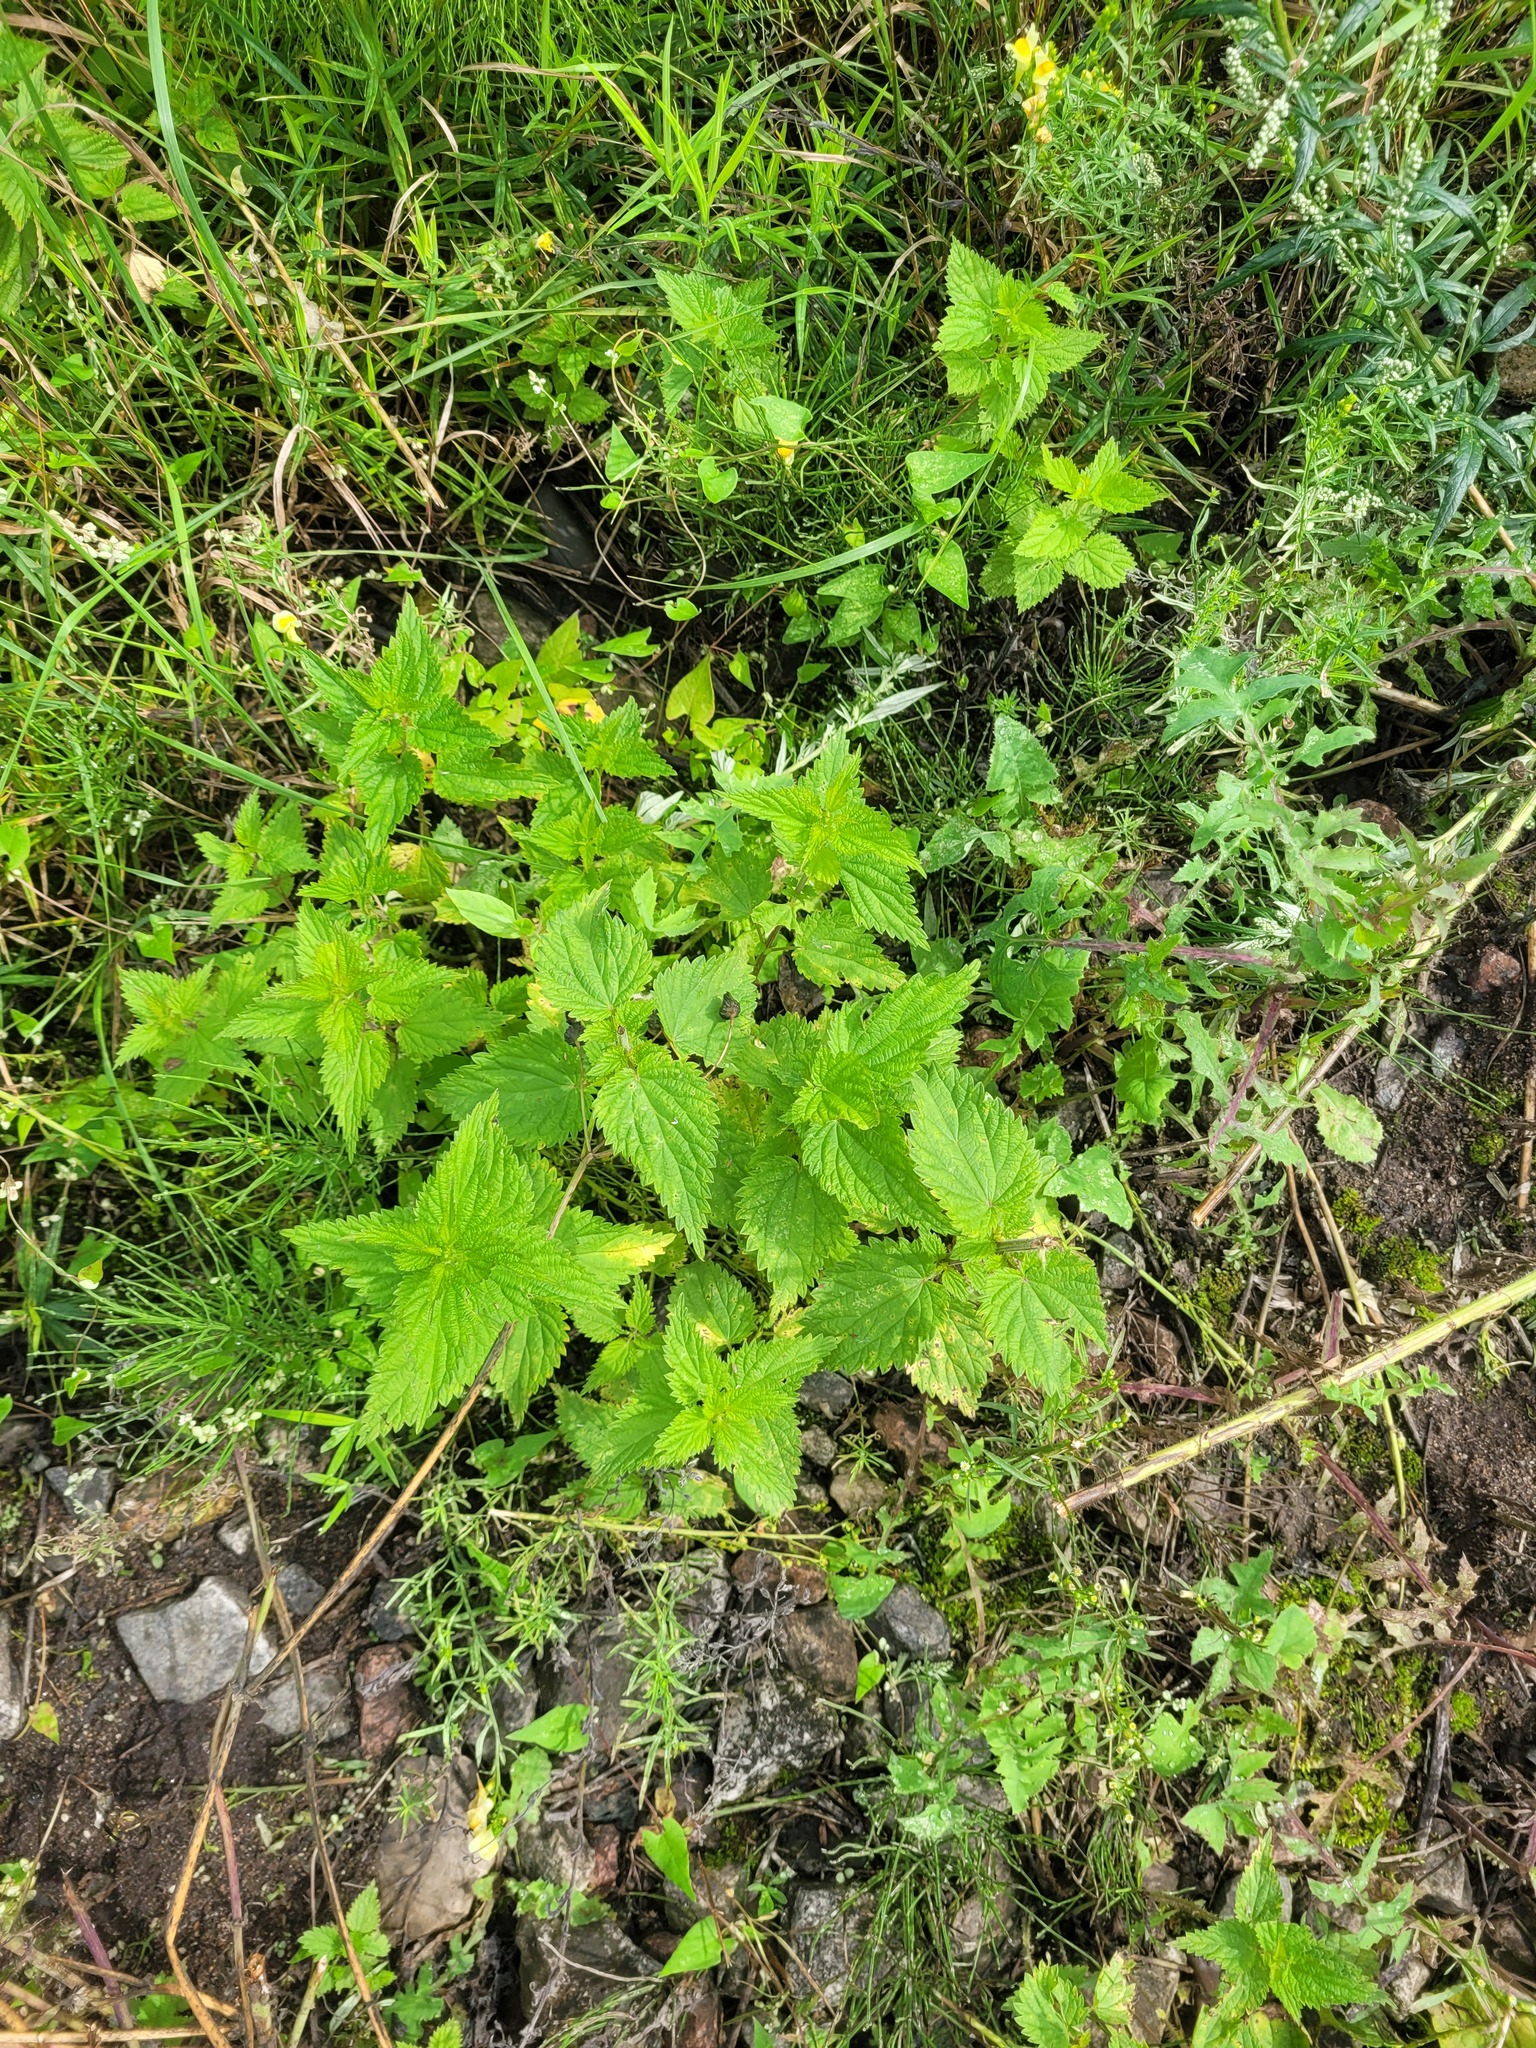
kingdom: Plantae
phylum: Tracheophyta
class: Magnoliopsida
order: Rosales
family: Urticaceae
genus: Urtica
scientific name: Urtica dioica
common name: Common nettle
